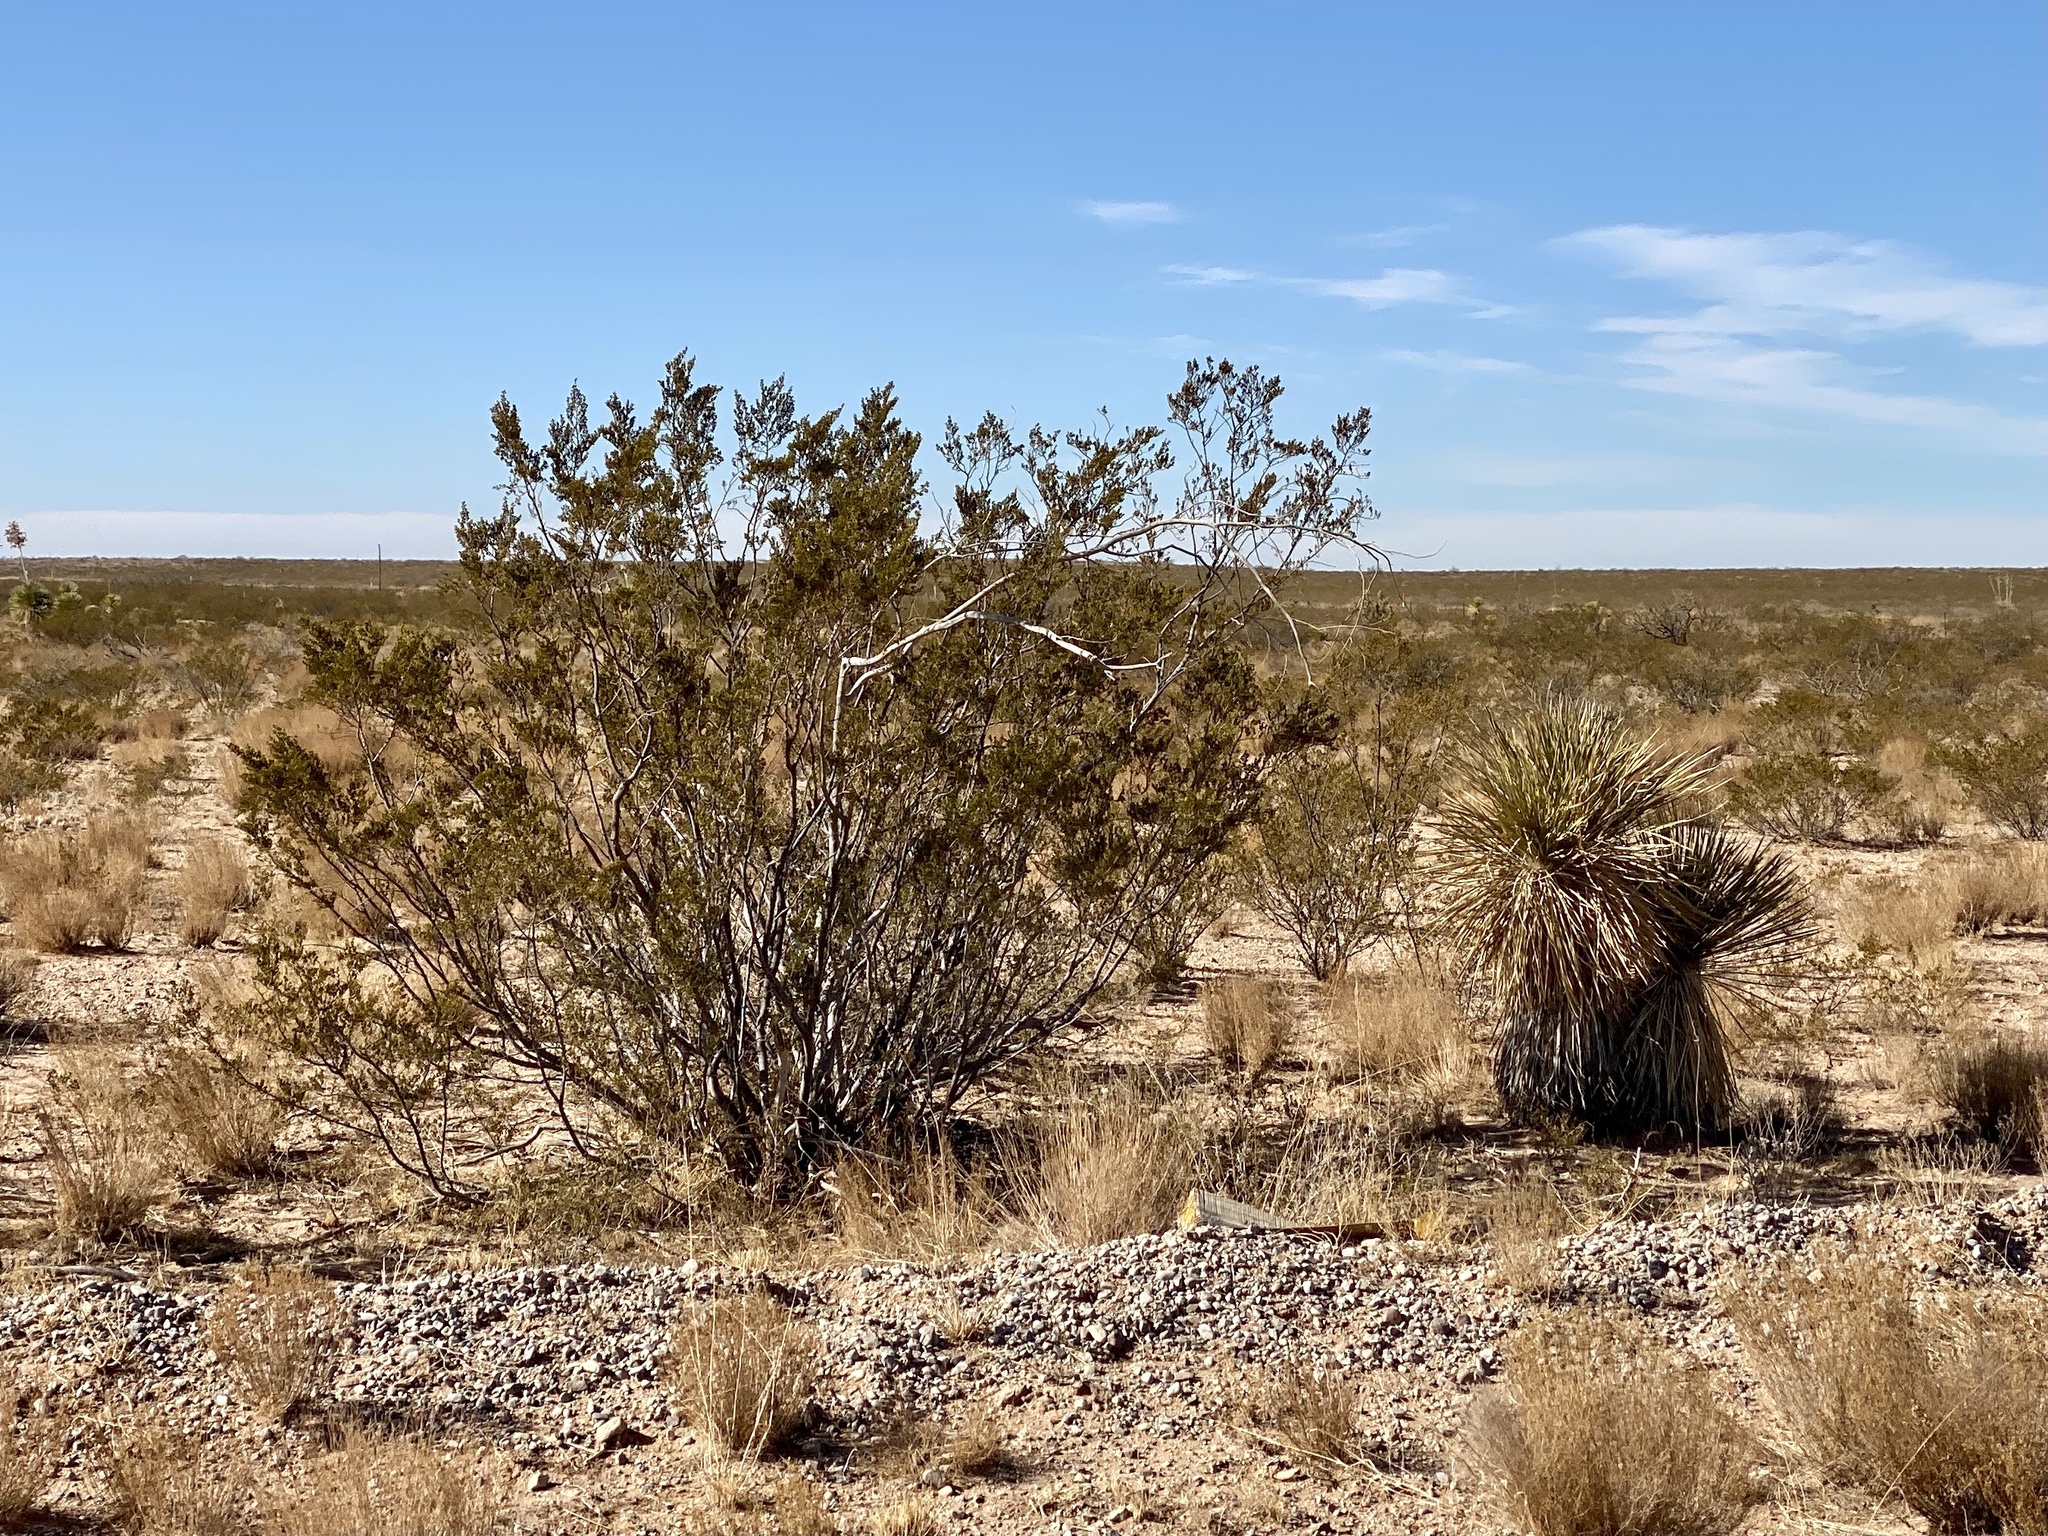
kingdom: Plantae
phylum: Tracheophyta
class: Magnoliopsida
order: Zygophyllales
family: Zygophyllaceae
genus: Larrea
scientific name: Larrea tridentata
